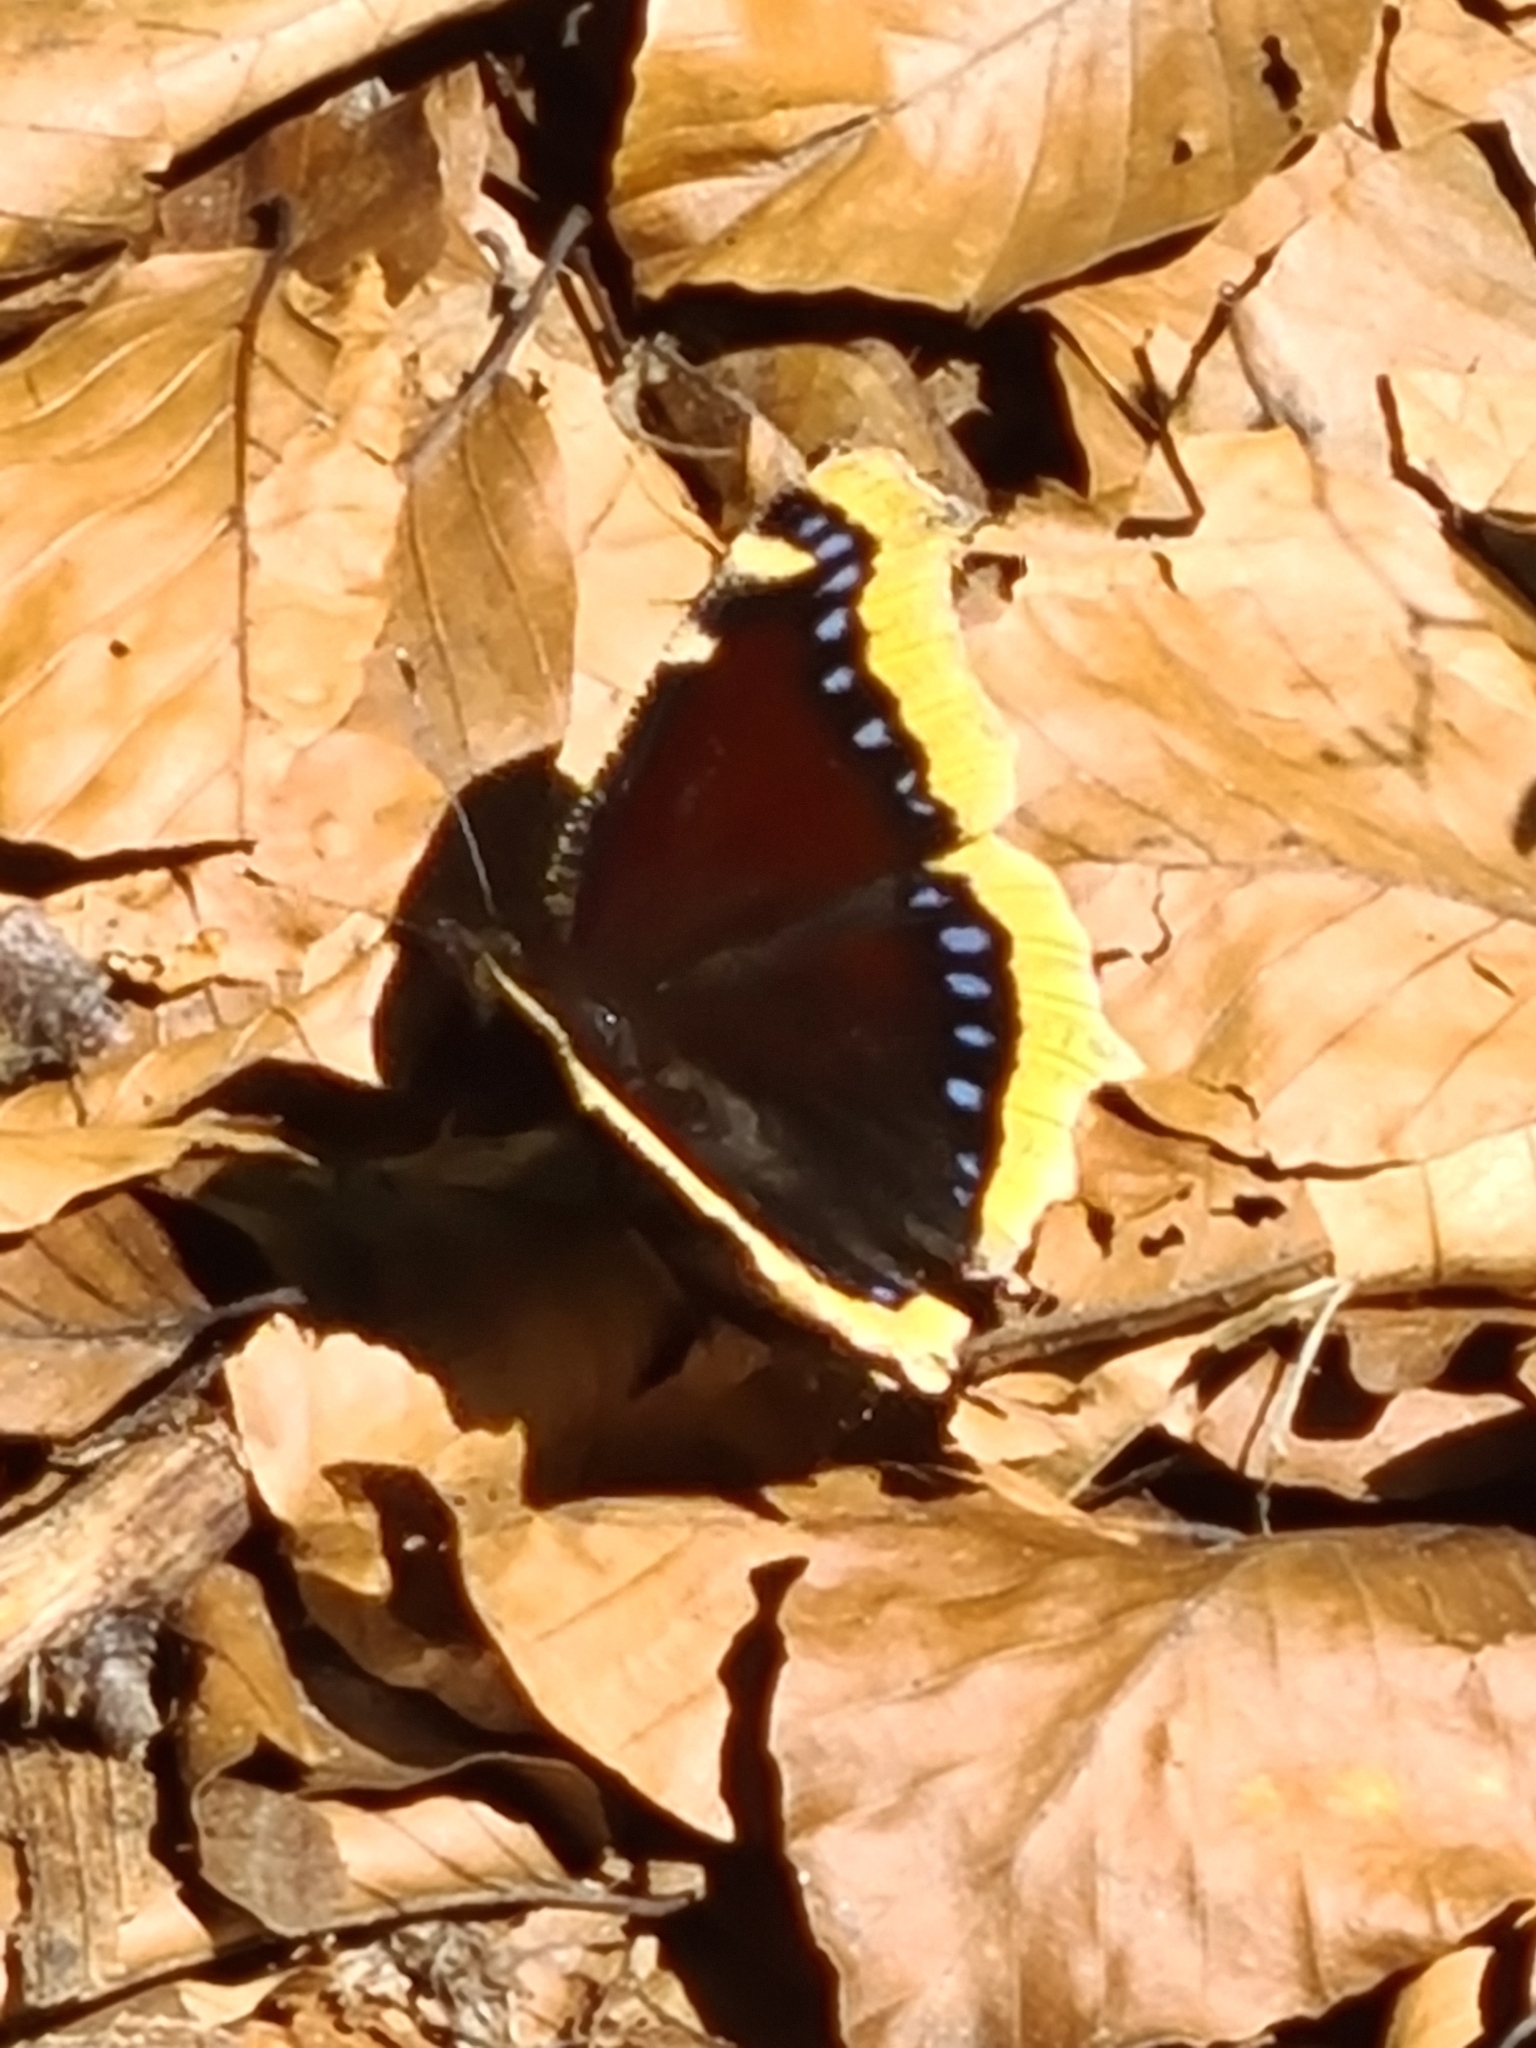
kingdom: Animalia
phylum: Arthropoda
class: Insecta
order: Lepidoptera
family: Nymphalidae
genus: Nymphalis
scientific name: Nymphalis antiopa
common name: Camberwell beauty
